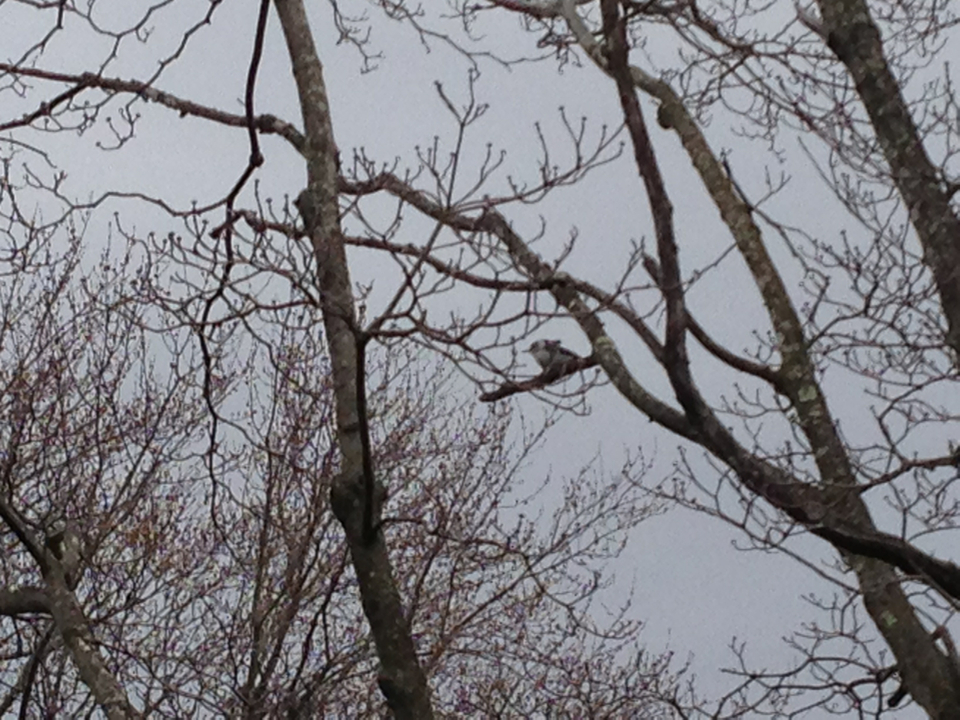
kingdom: Animalia
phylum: Chordata
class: Aves
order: Passeriformes
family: Sittidae
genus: Sitta
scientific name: Sitta carolinensis
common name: White-breasted nuthatch
